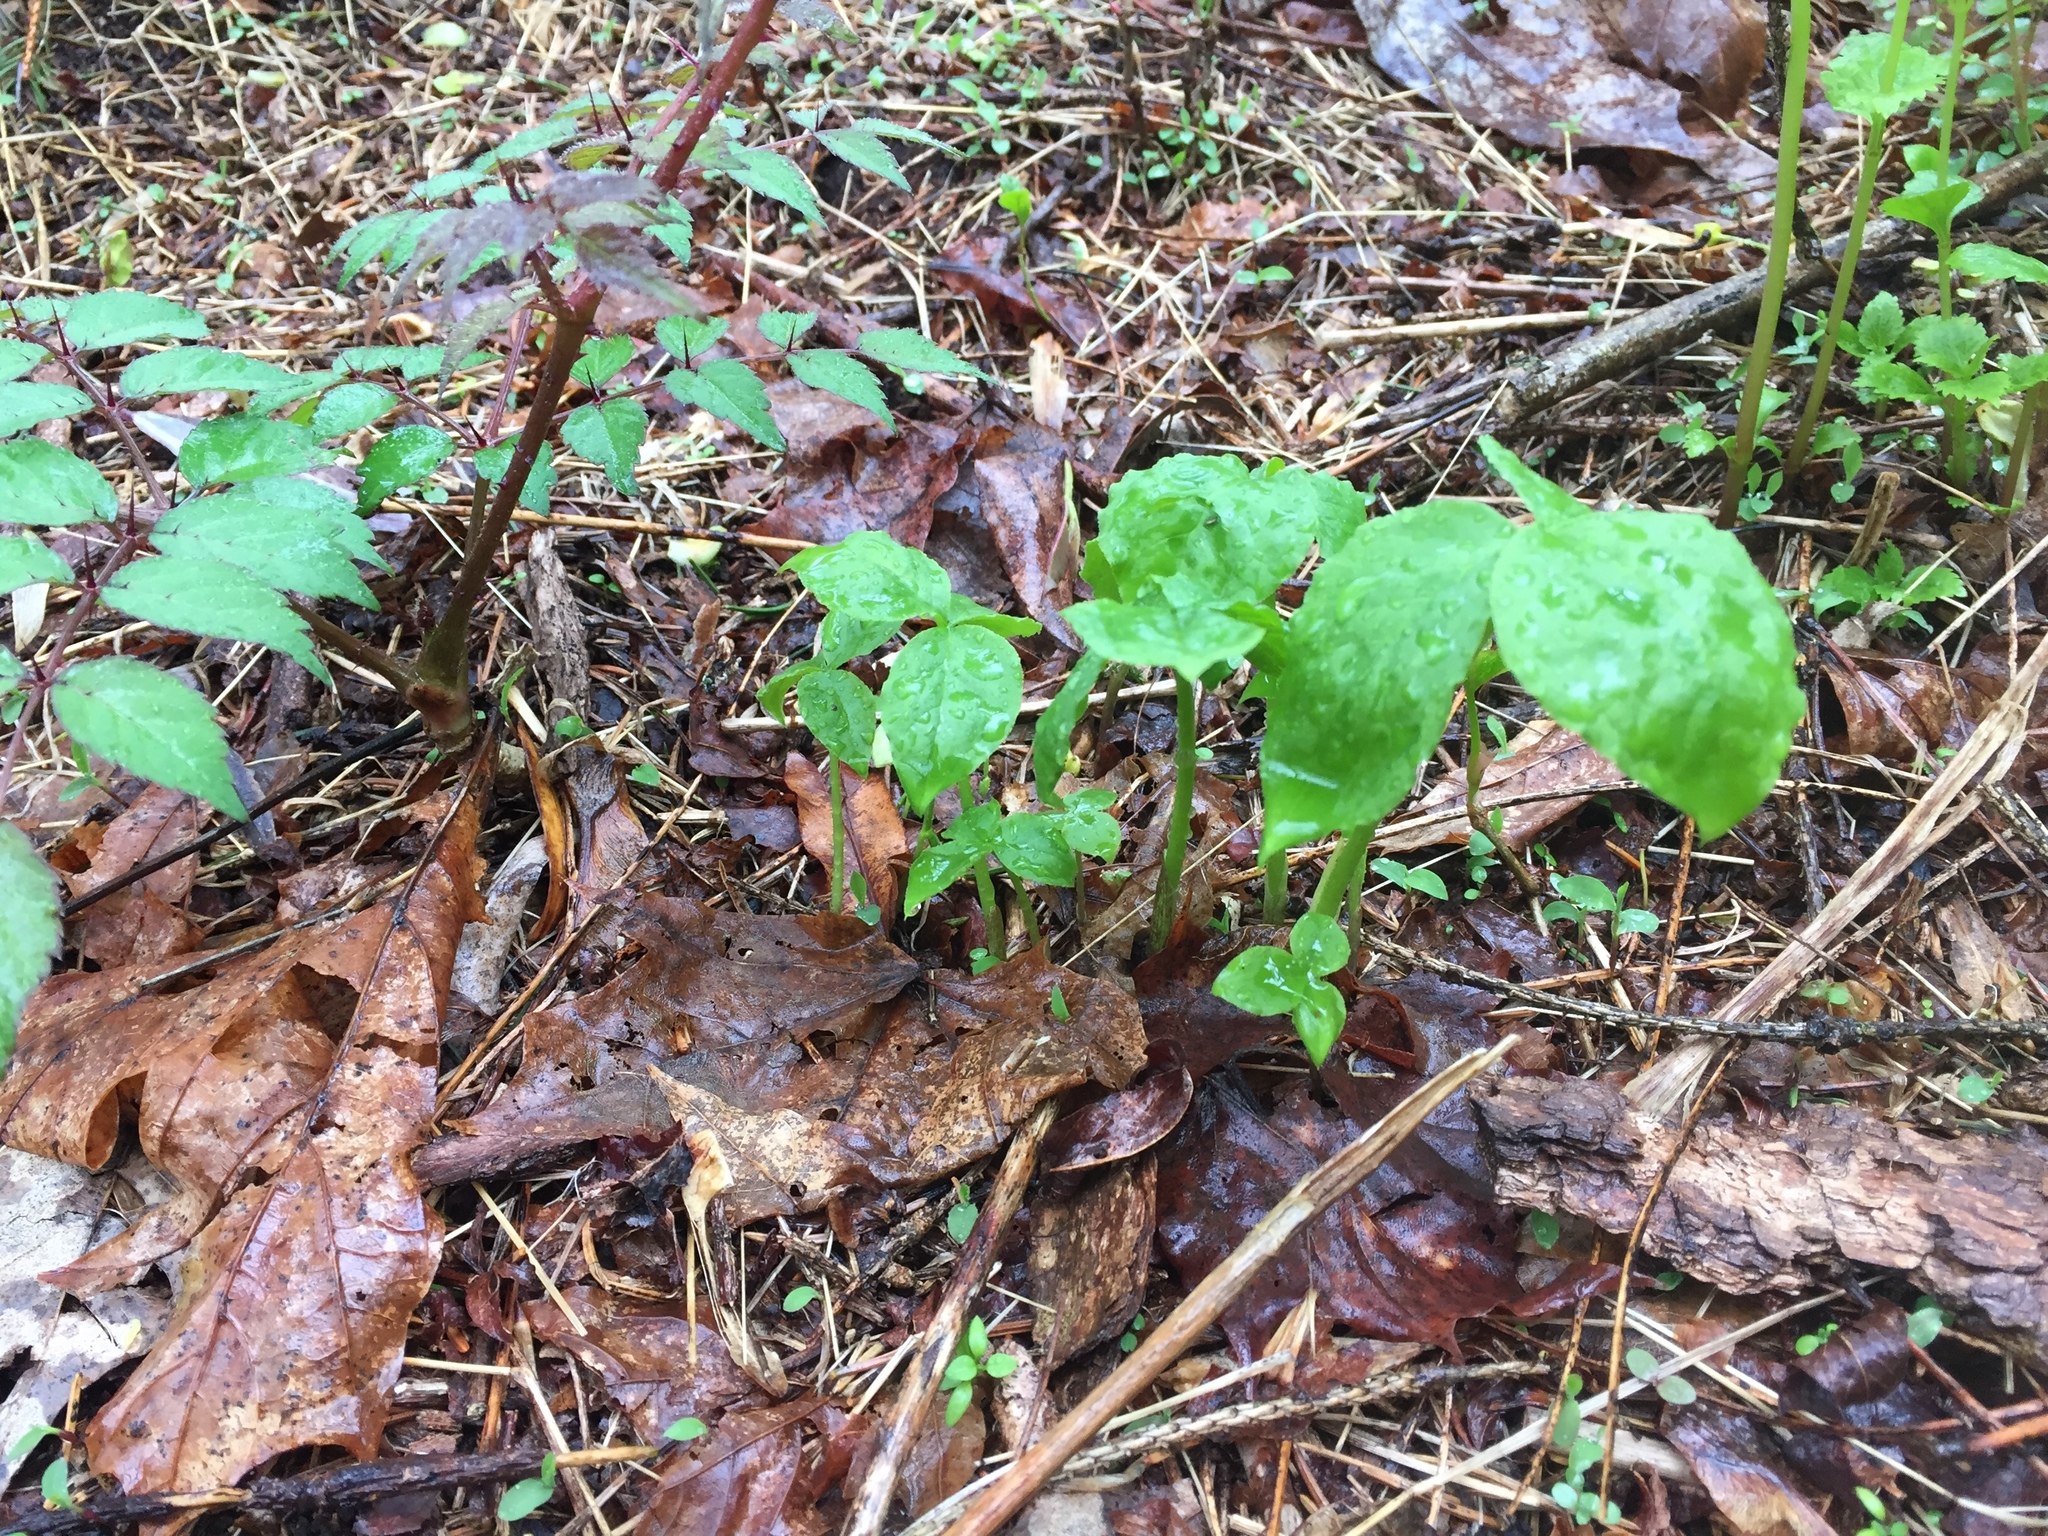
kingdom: Plantae
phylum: Tracheophyta
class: Liliopsida
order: Alismatales
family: Araceae
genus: Arisaema
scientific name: Arisaema triphyllum
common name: Jack-in-the-pulpit
